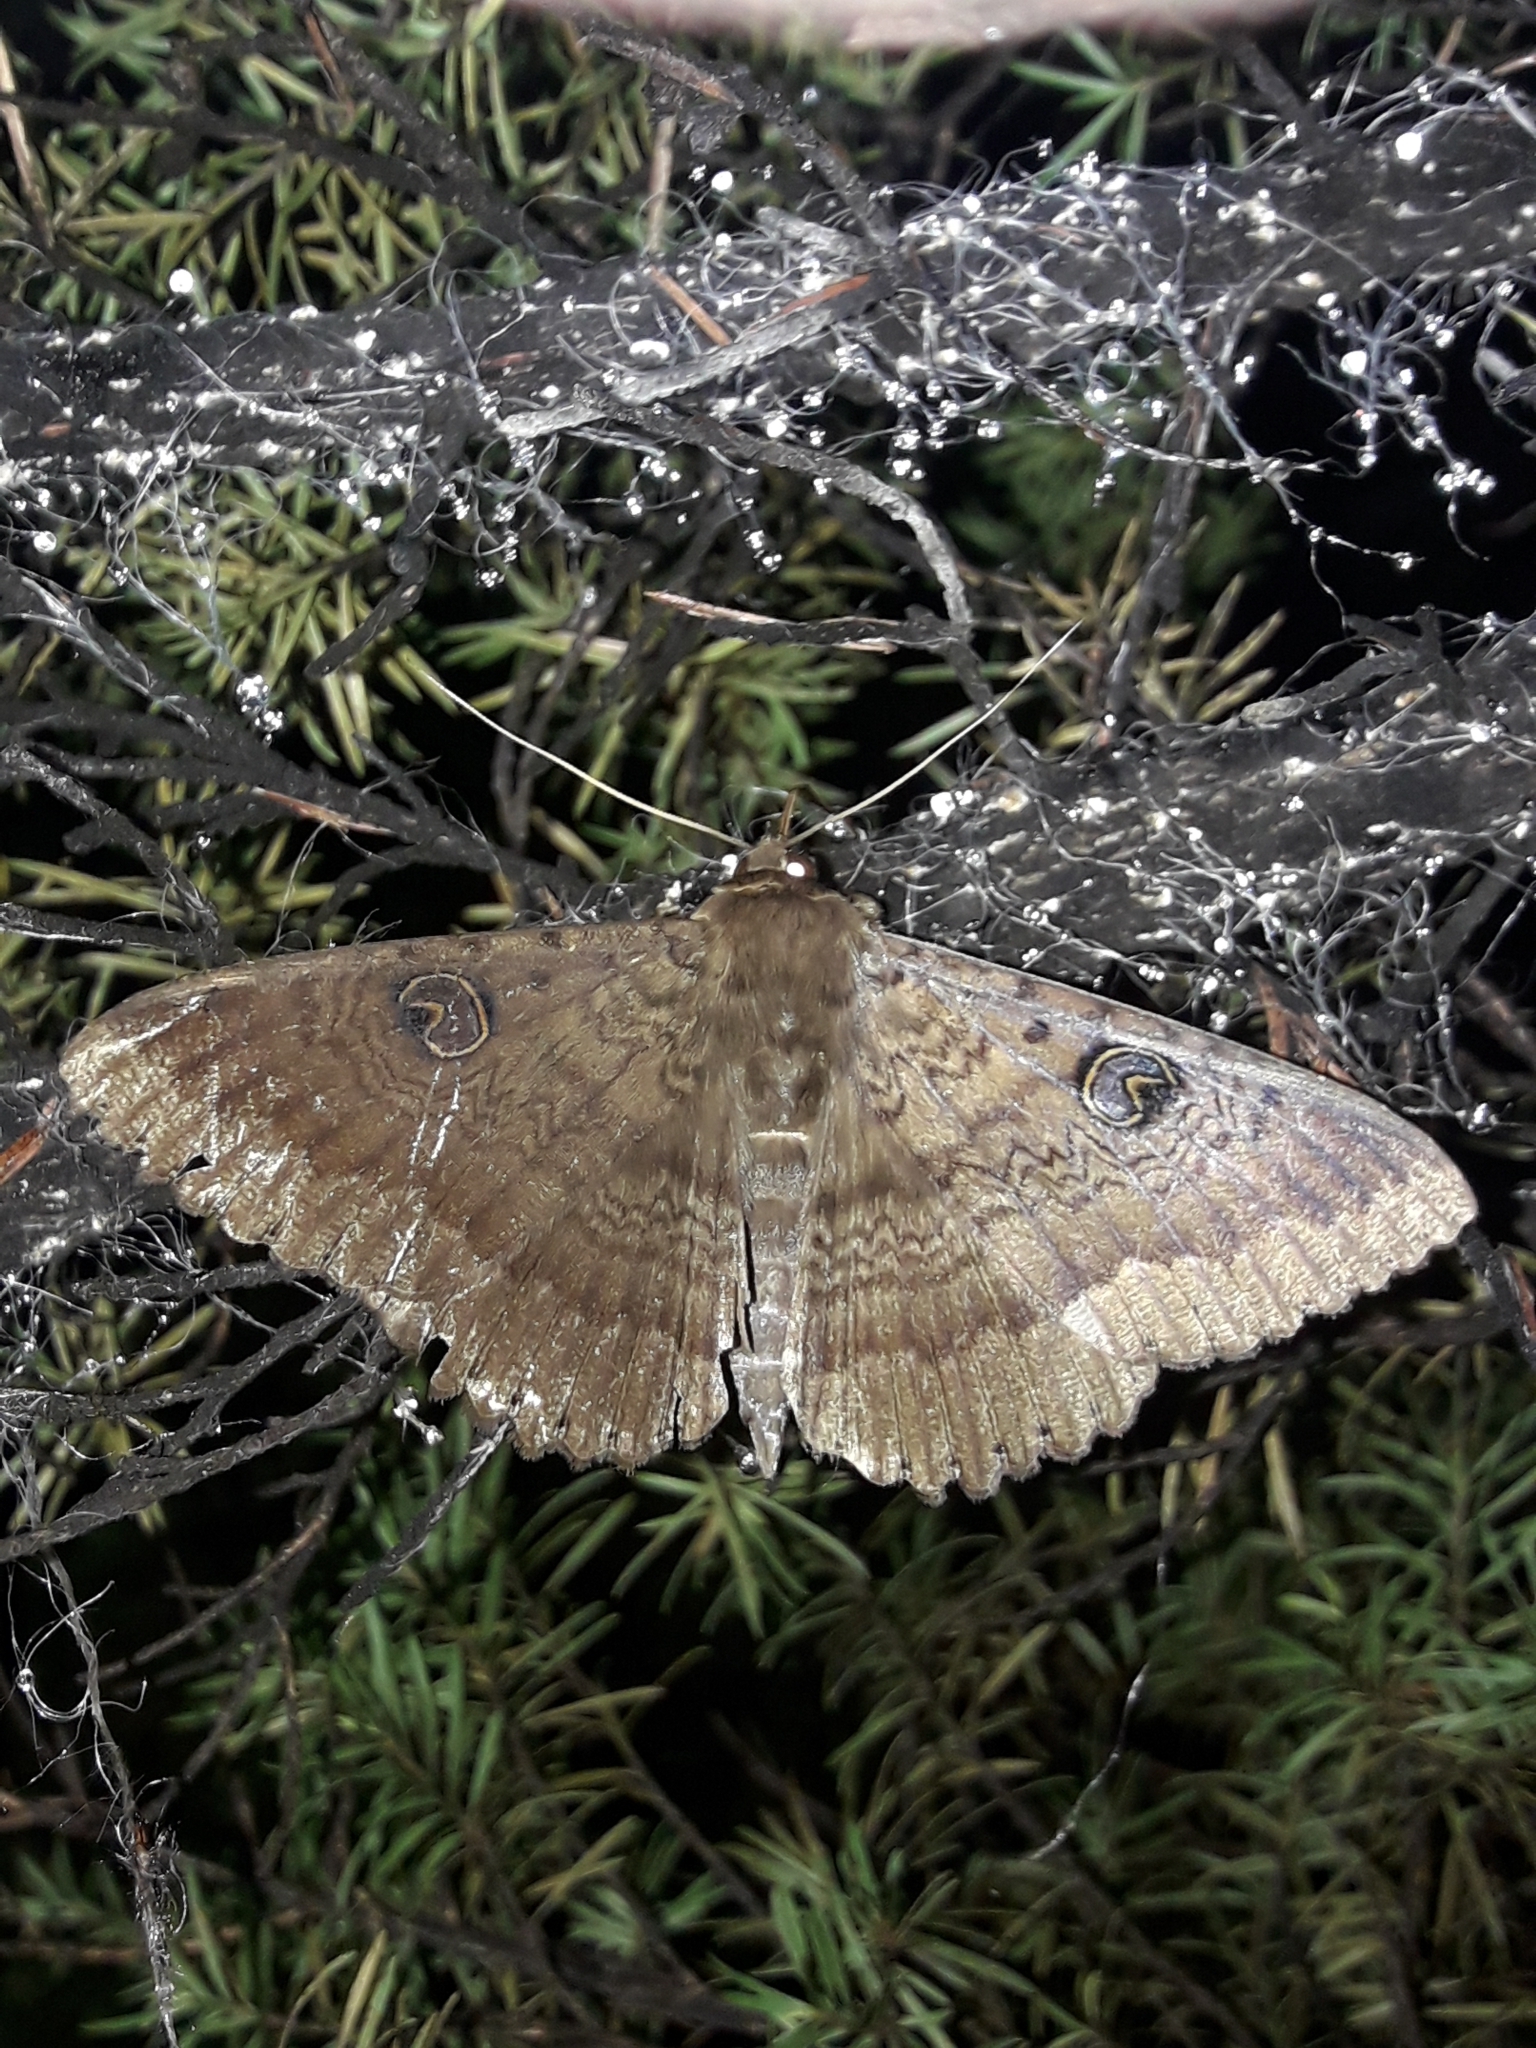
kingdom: Animalia
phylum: Arthropoda
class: Insecta
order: Lepidoptera
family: Erebidae
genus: Dasypodia
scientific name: Dasypodia cymatodes
